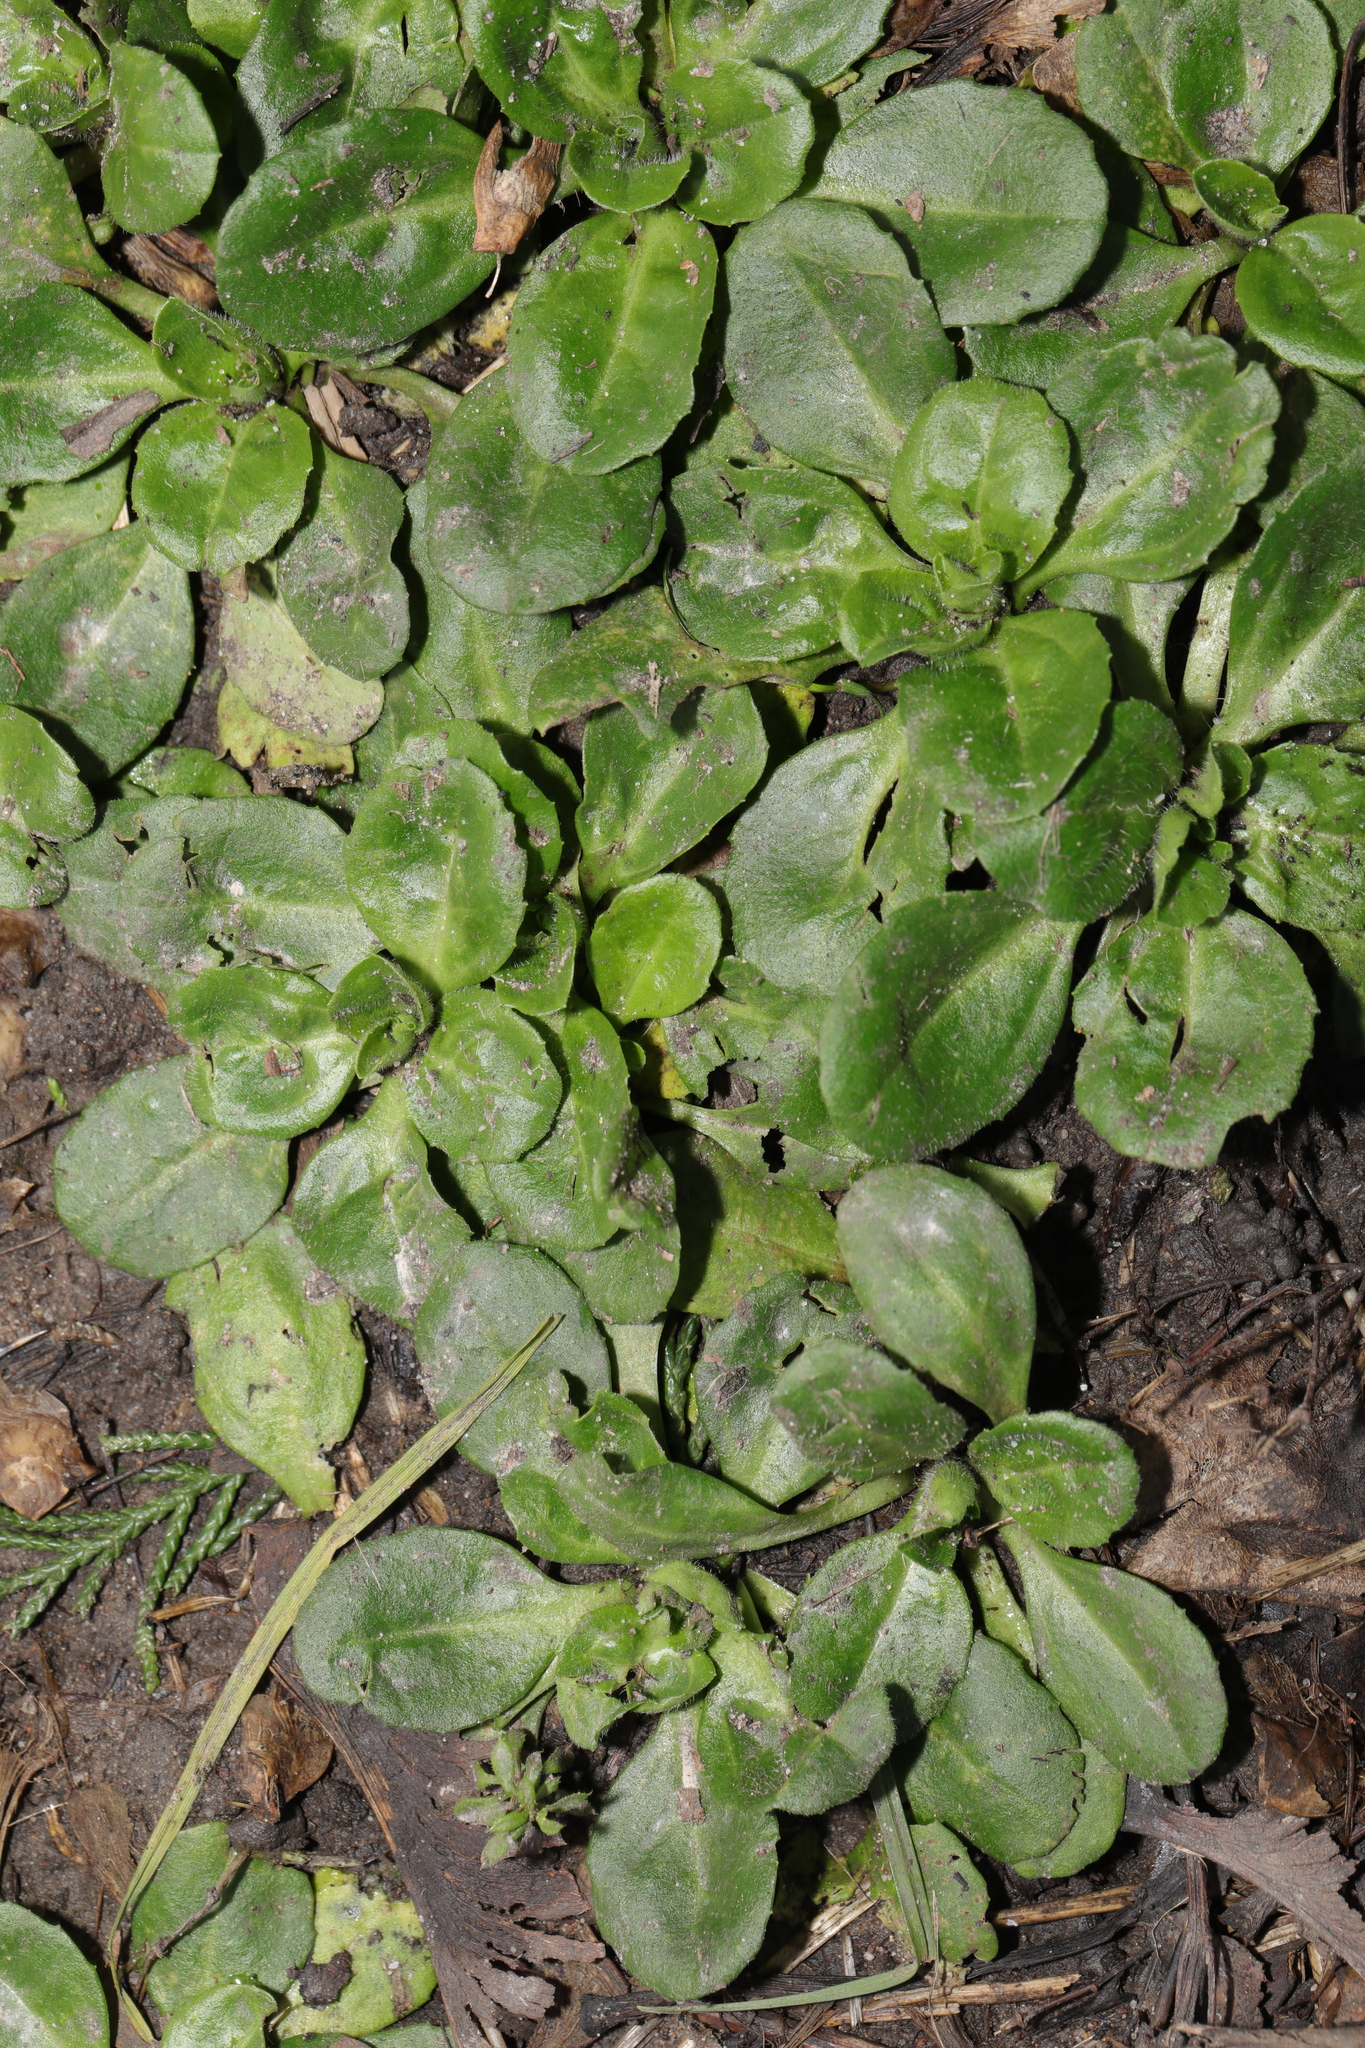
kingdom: Plantae
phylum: Tracheophyta
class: Magnoliopsida
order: Asterales
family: Asteraceae
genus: Bellis
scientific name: Bellis perennis
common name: Lawndaisy
